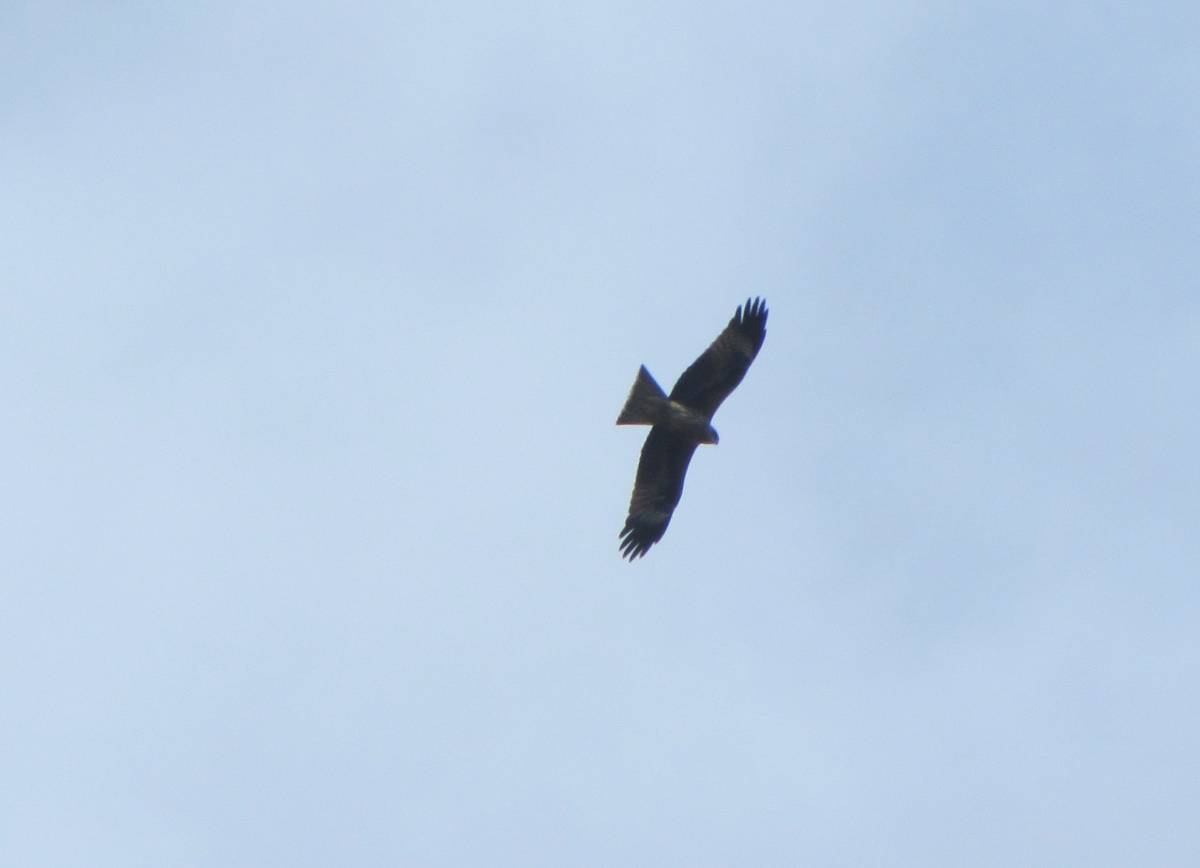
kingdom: Animalia
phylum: Chordata
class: Aves
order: Accipitriformes
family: Accipitridae
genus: Milvus
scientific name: Milvus migrans
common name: Black kite
